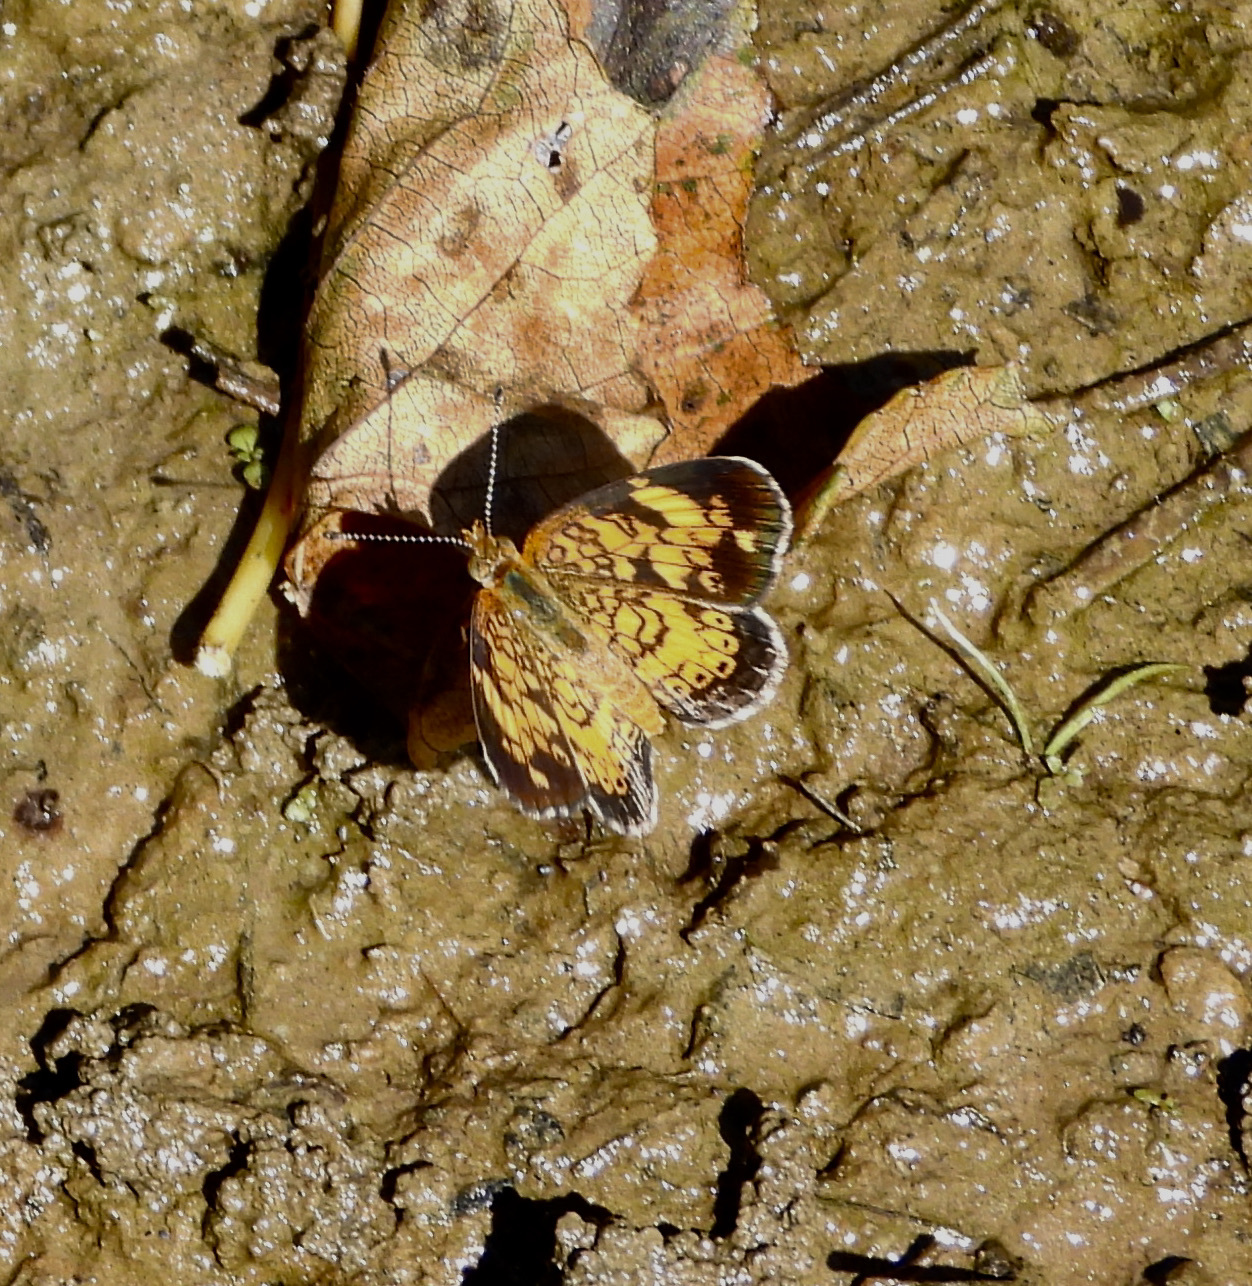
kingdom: Animalia
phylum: Arthropoda
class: Insecta
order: Lepidoptera
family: Nymphalidae
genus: Phyciodes
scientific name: Phyciodes tharos
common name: Pearl crescent
